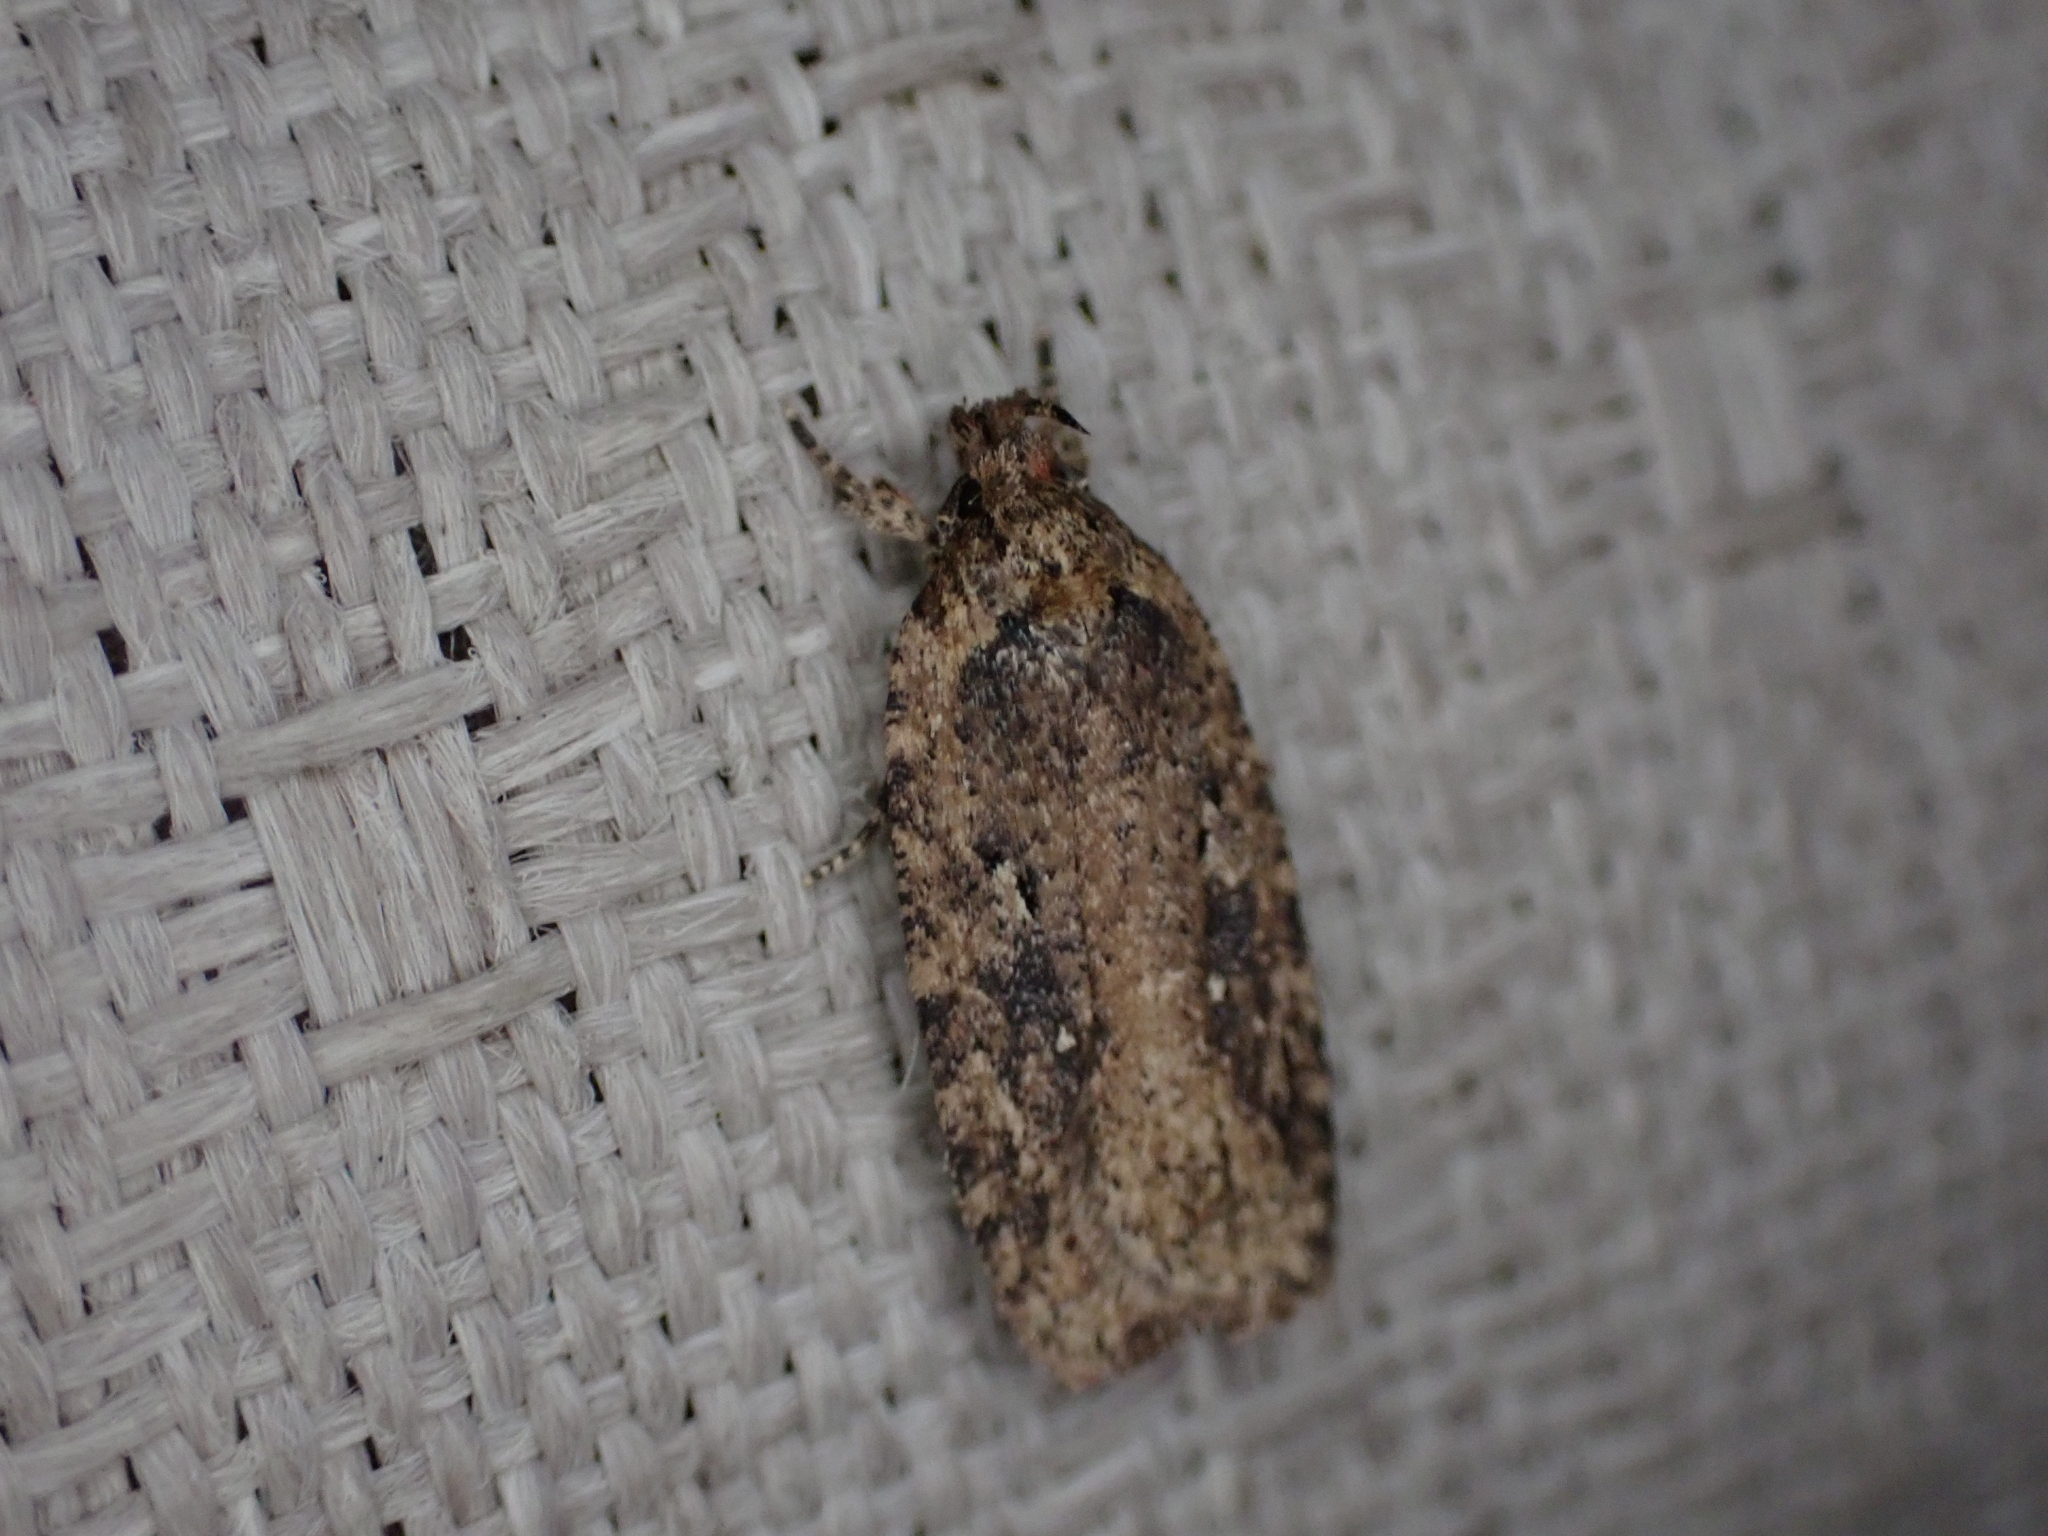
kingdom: Animalia
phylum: Arthropoda
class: Insecta
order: Lepidoptera
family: Depressariidae
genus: Agonopterix
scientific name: Agonopterix pulvipennella
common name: Goldenrod leafffolder
